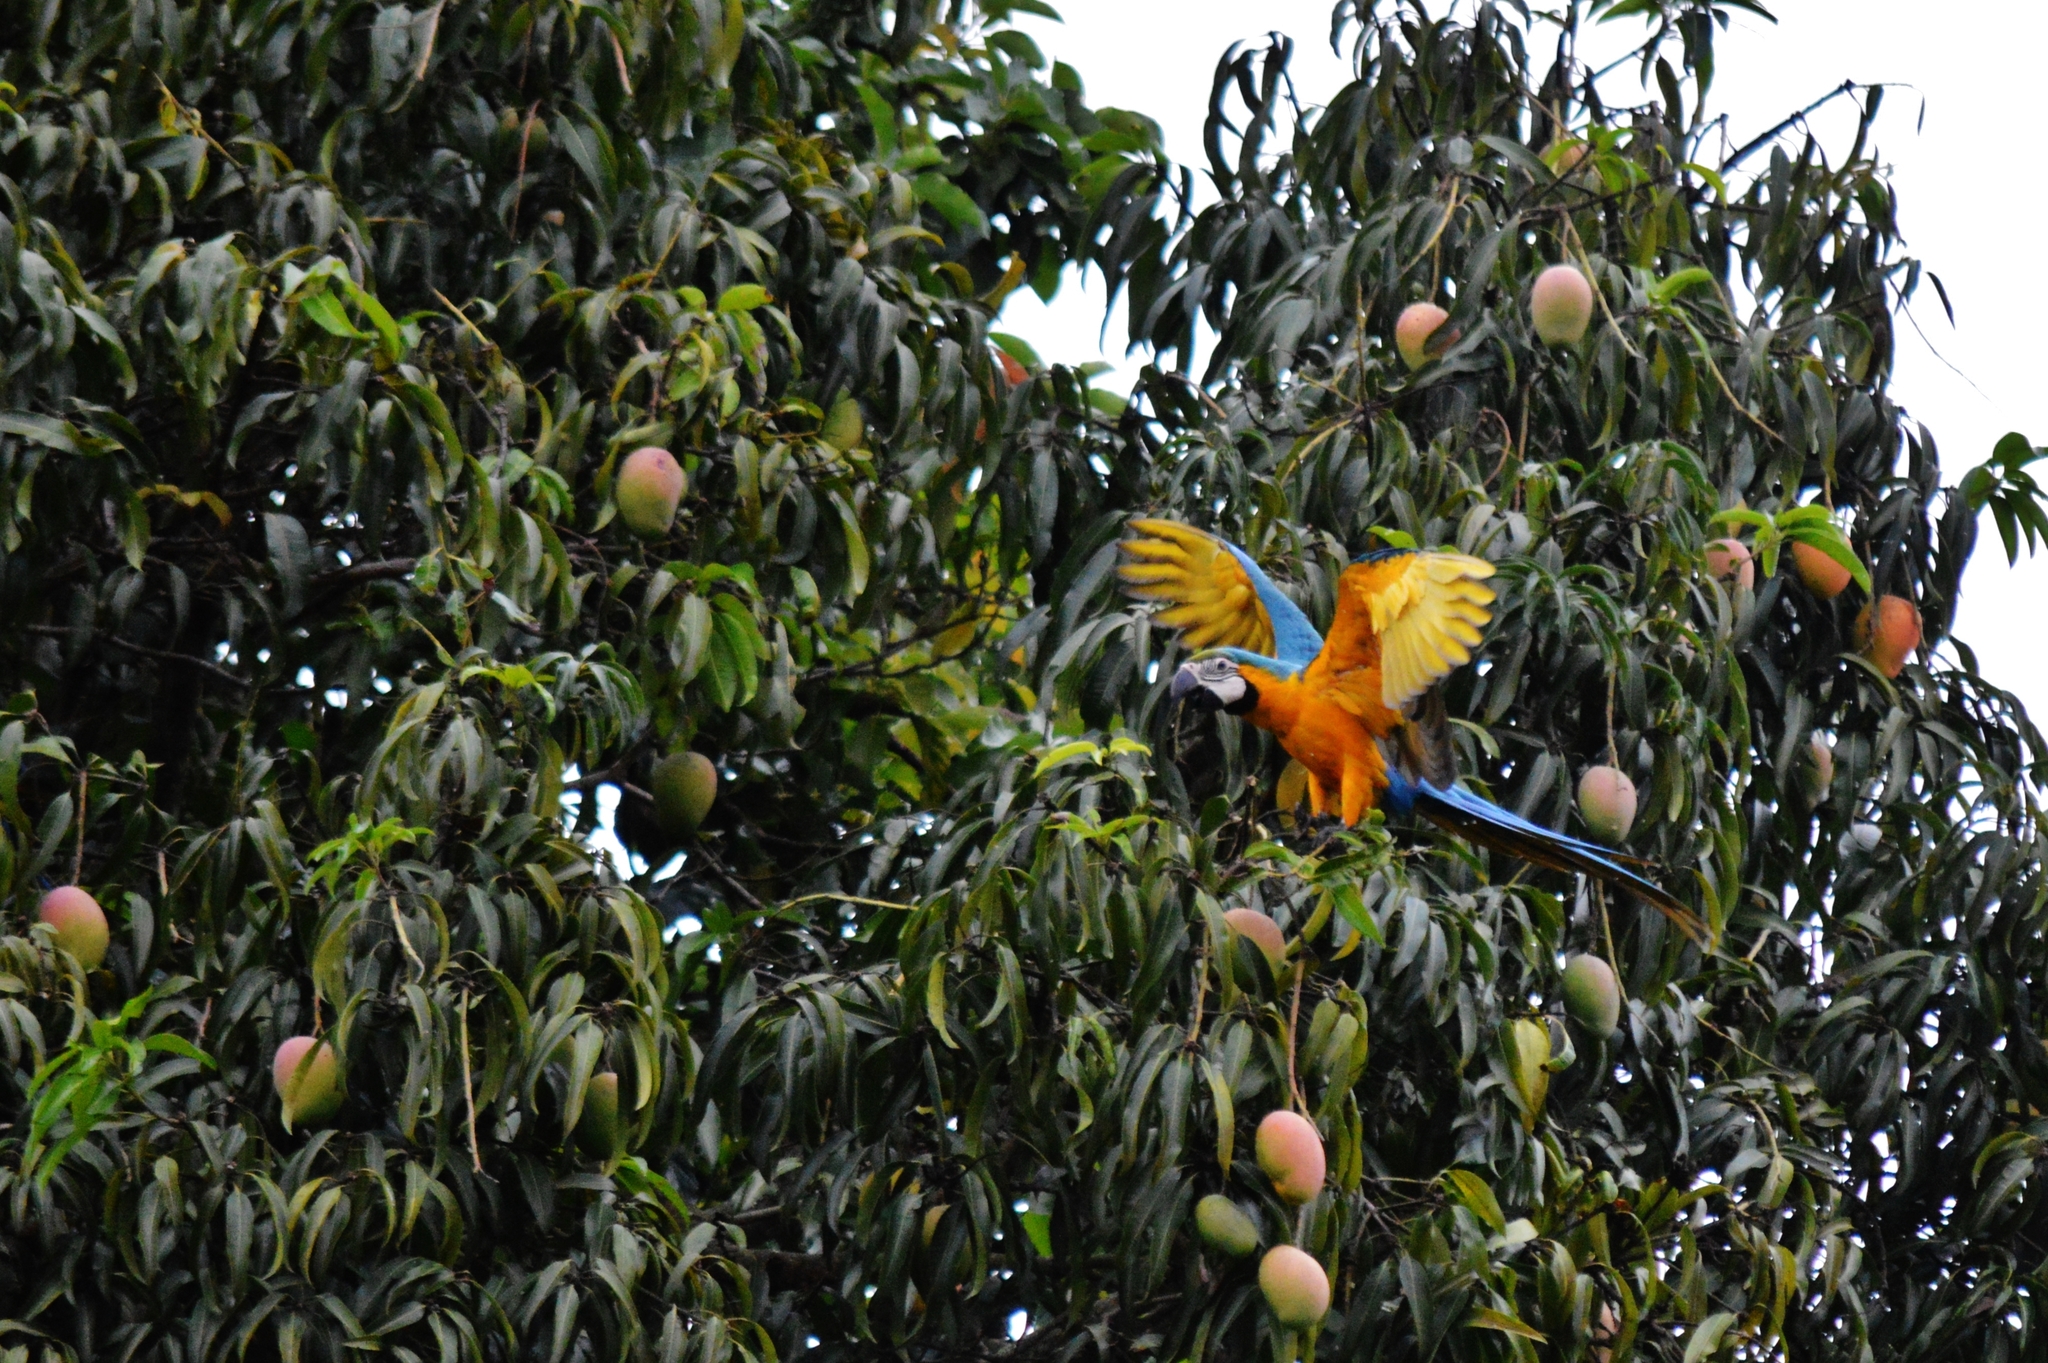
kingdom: Animalia
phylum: Chordata
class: Aves
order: Psittaciformes
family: Psittacidae
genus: Ara
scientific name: Ara ararauna
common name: Blue-and-yellow macaw
